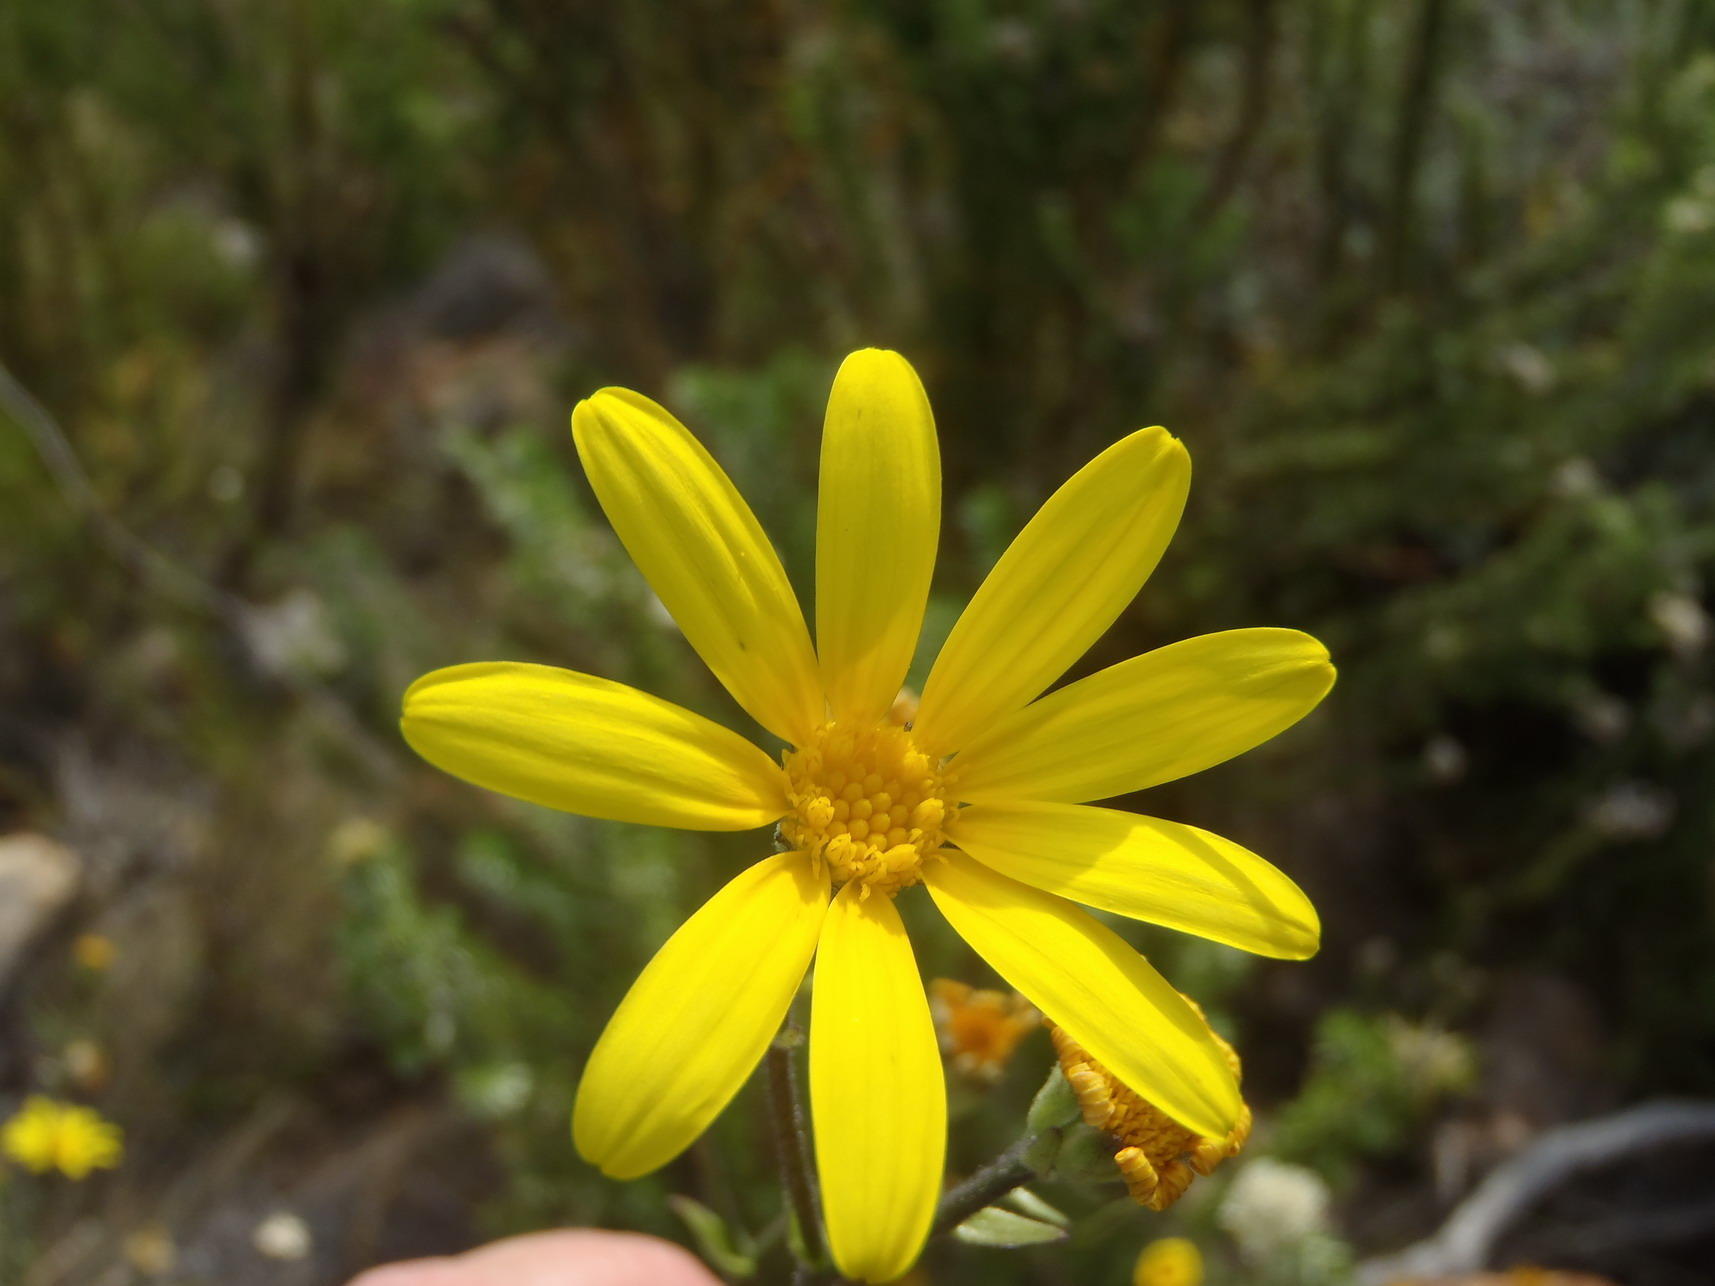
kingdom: Plantae
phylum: Tracheophyta
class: Magnoliopsida
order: Asterales
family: Asteraceae
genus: Osteospermum
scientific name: Osteospermum polygaloides
